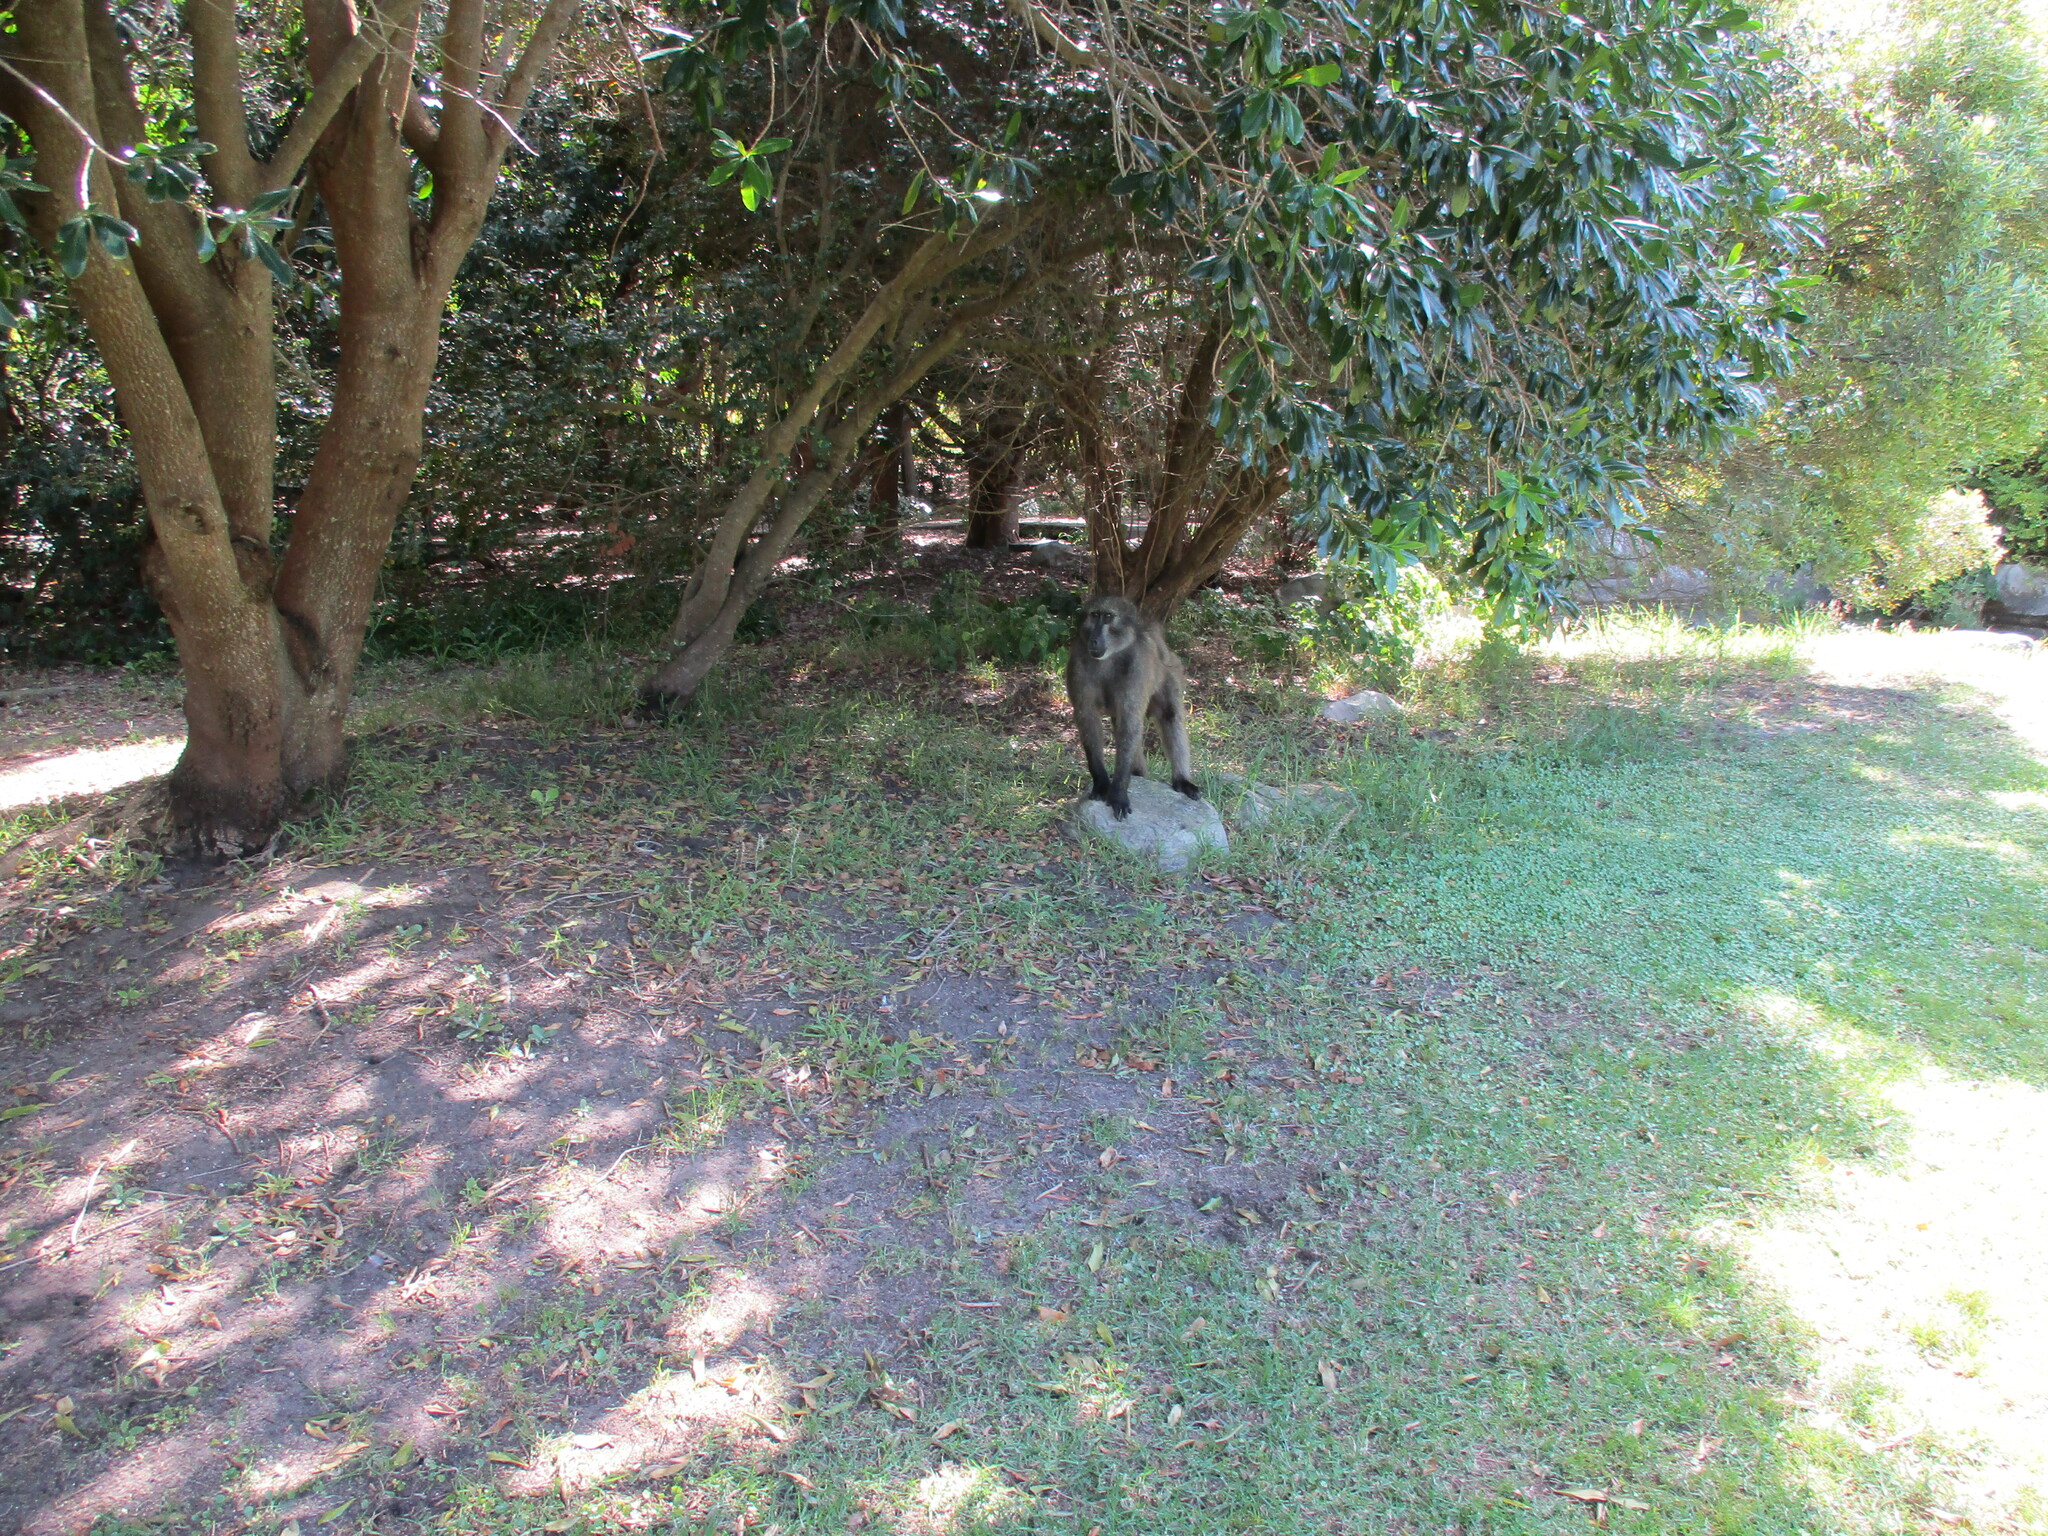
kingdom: Animalia
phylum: Chordata
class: Mammalia
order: Primates
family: Cercopithecidae
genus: Papio
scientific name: Papio ursinus
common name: Chacma baboon
